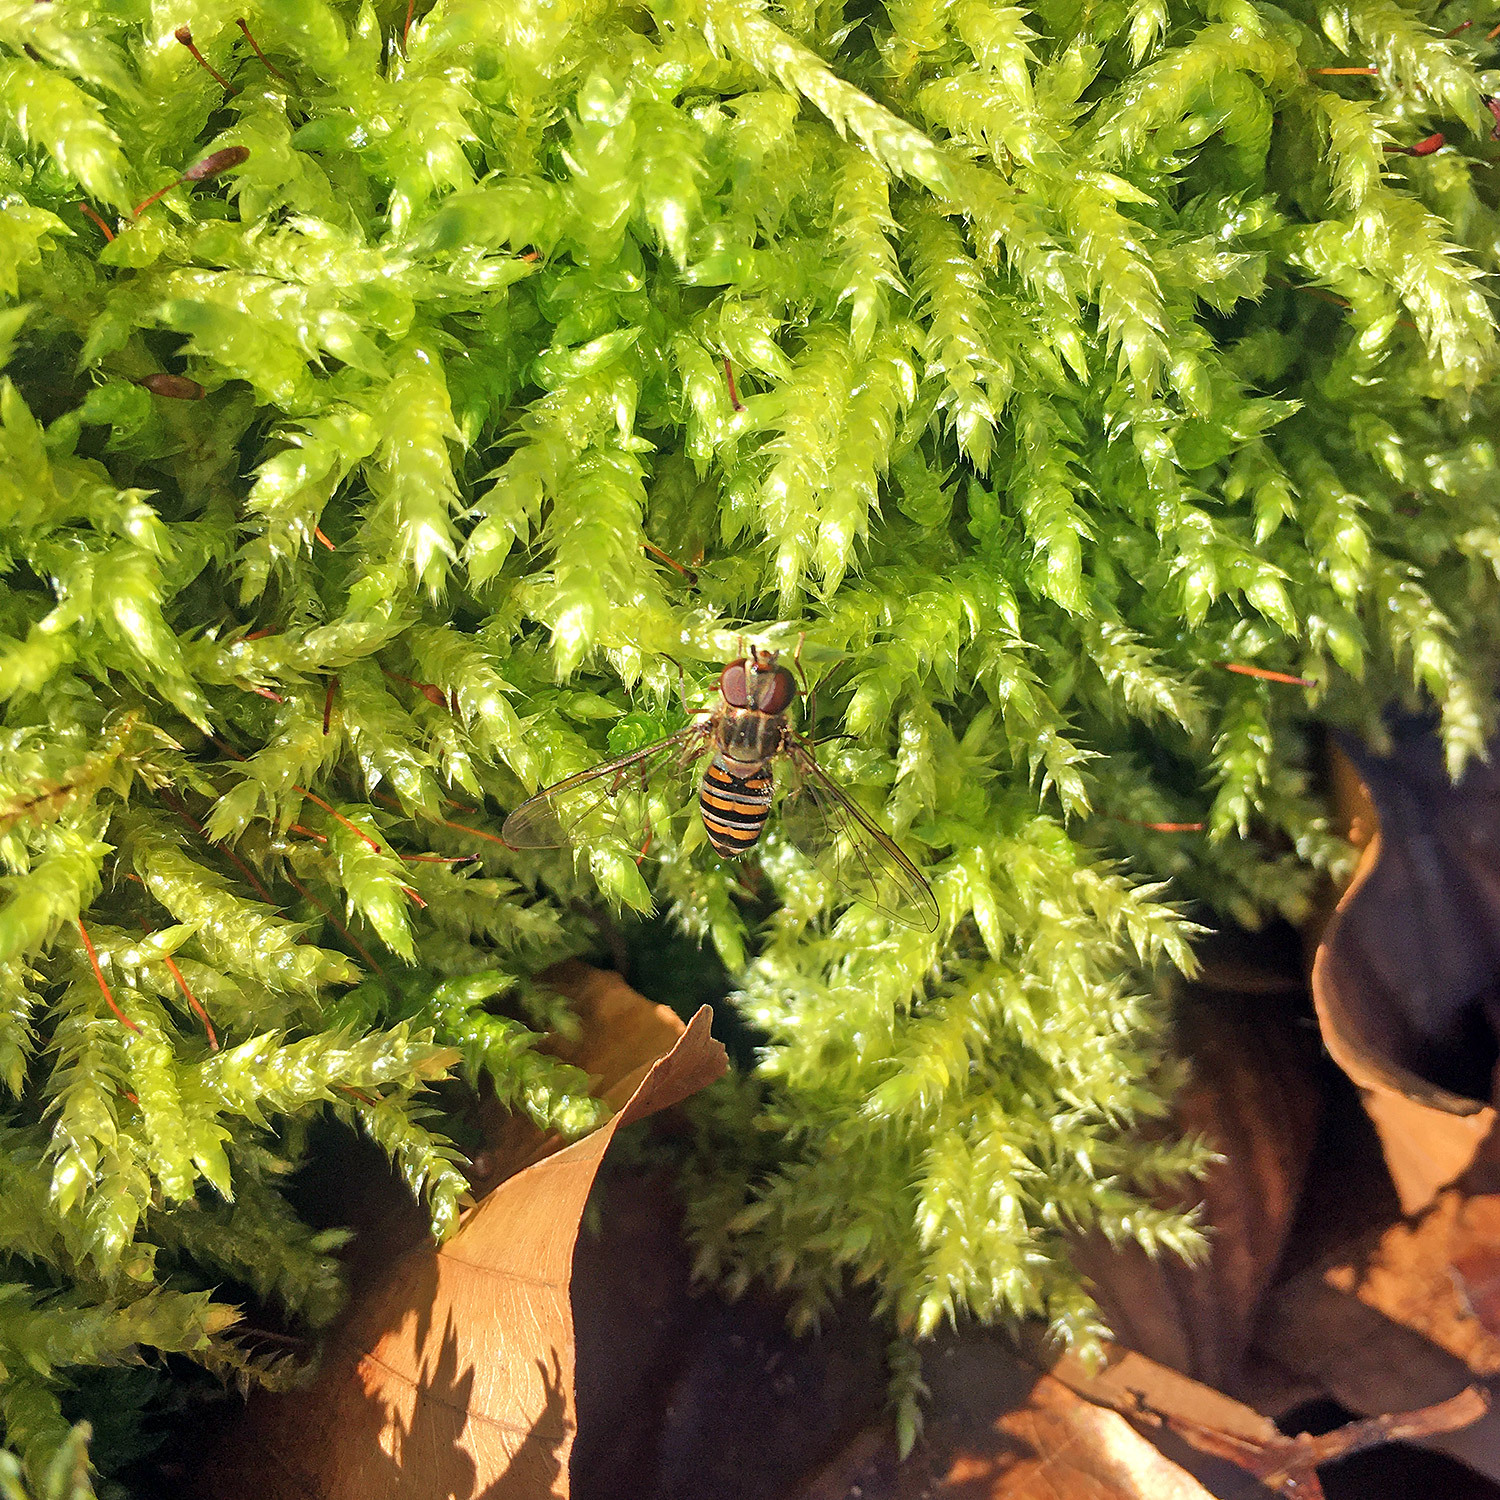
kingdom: Animalia
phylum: Arthropoda
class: Insecta
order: Diptera
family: Syrphidae
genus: Episyrphus
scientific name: Episyrphus balteatus
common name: Marmalade hoverfly
